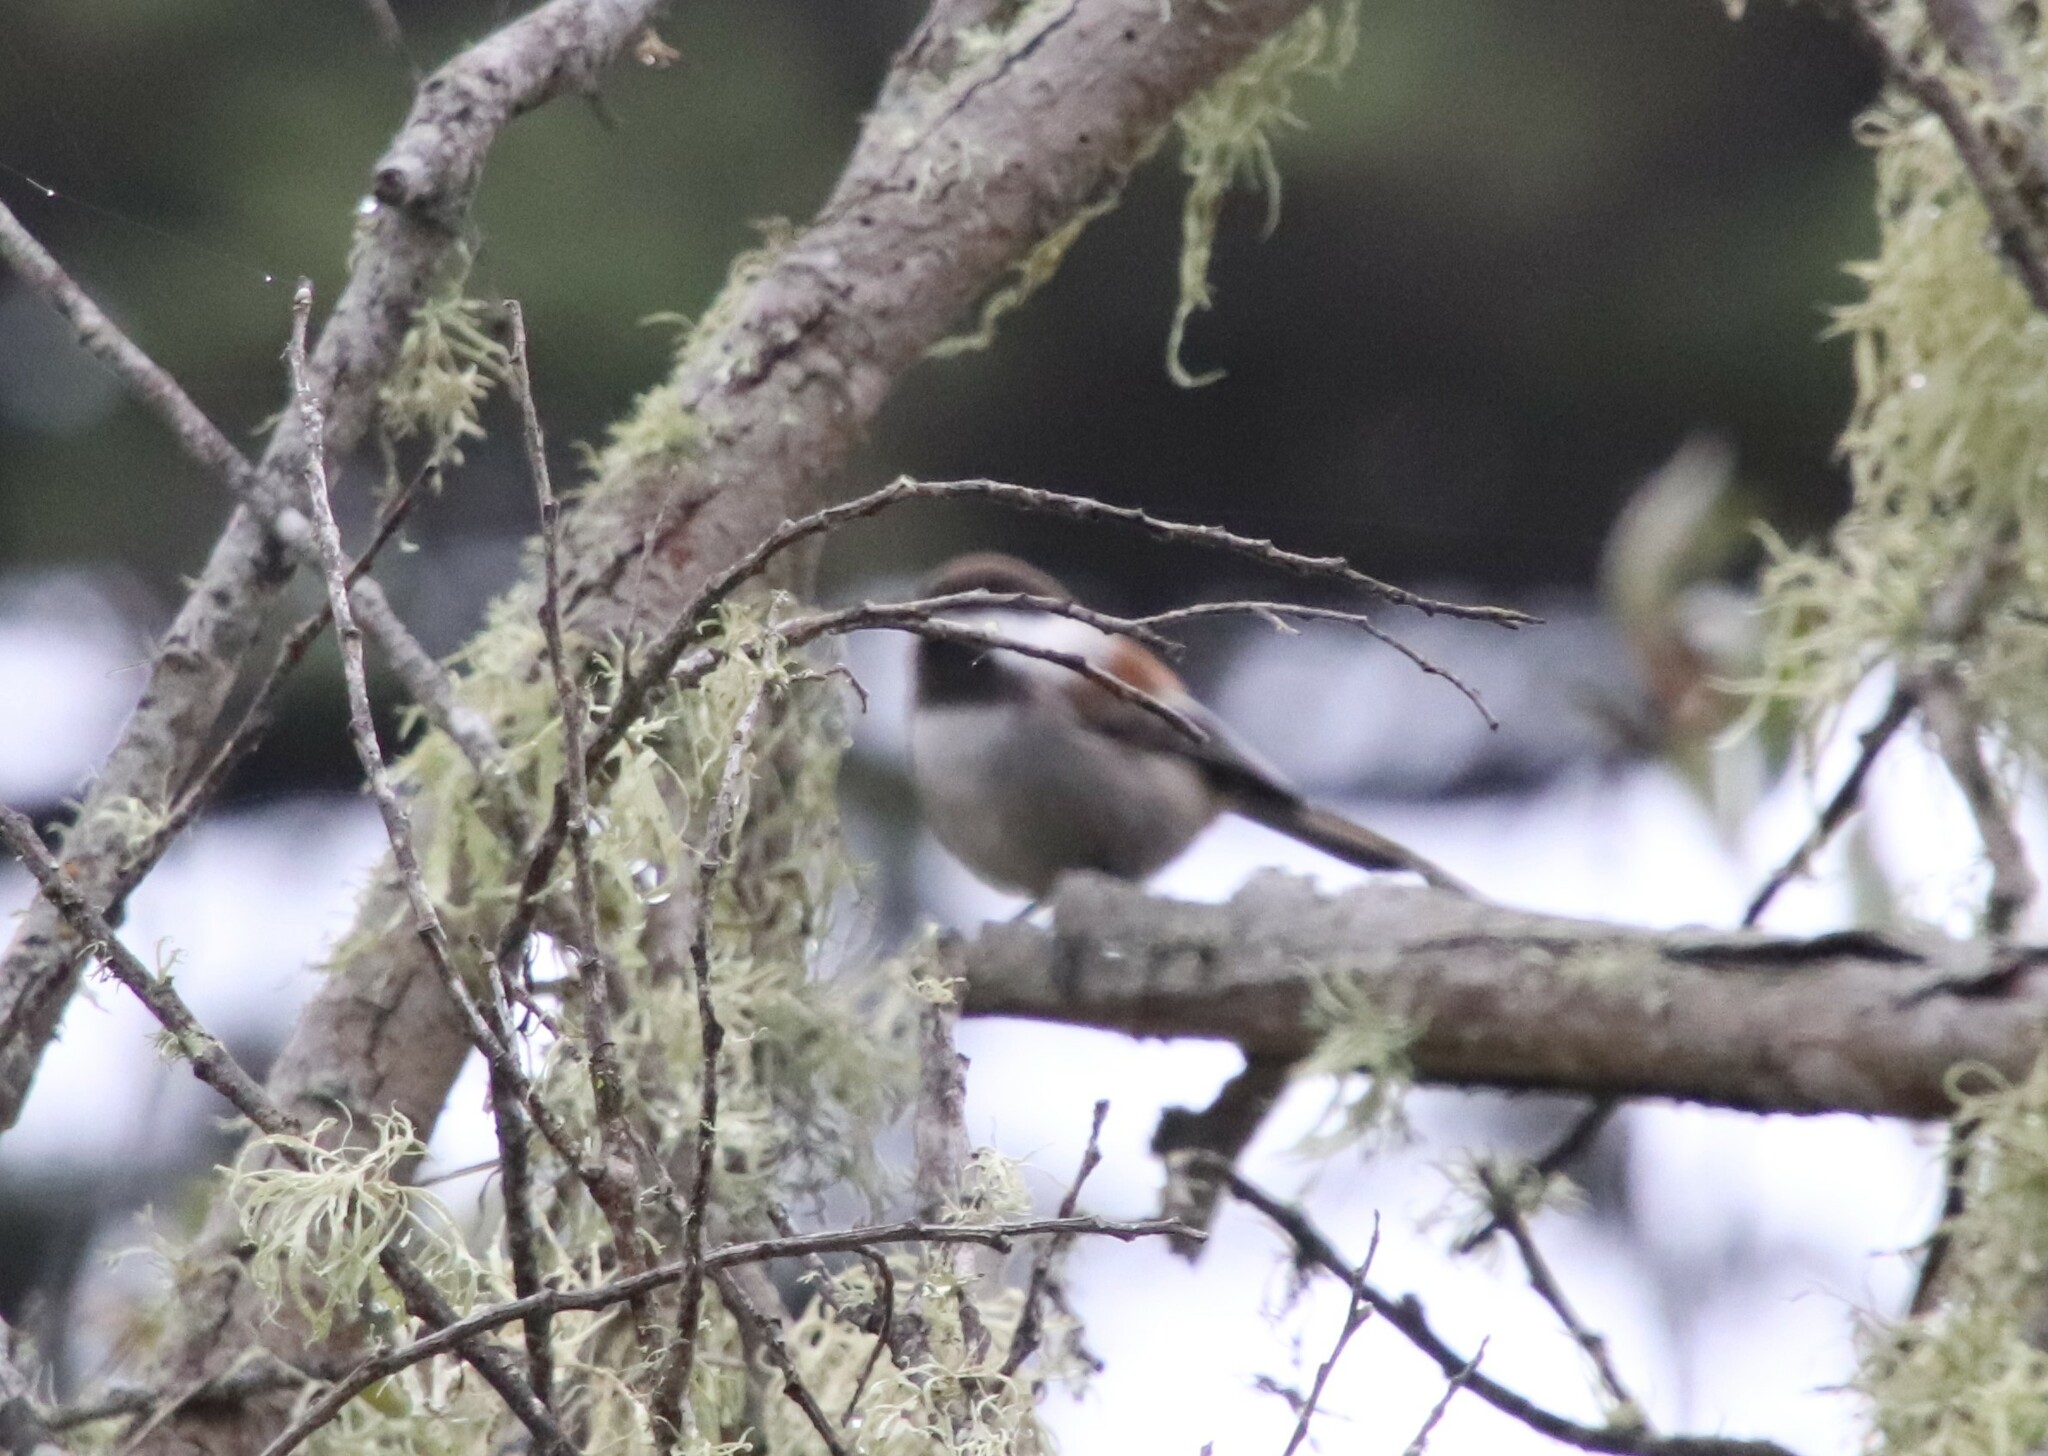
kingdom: Animalia
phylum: Chordata
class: Aves
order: Passeriformes
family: Paridae
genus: Poecile
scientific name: Poecile rufescens
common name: Chestnut-backed chickadee
